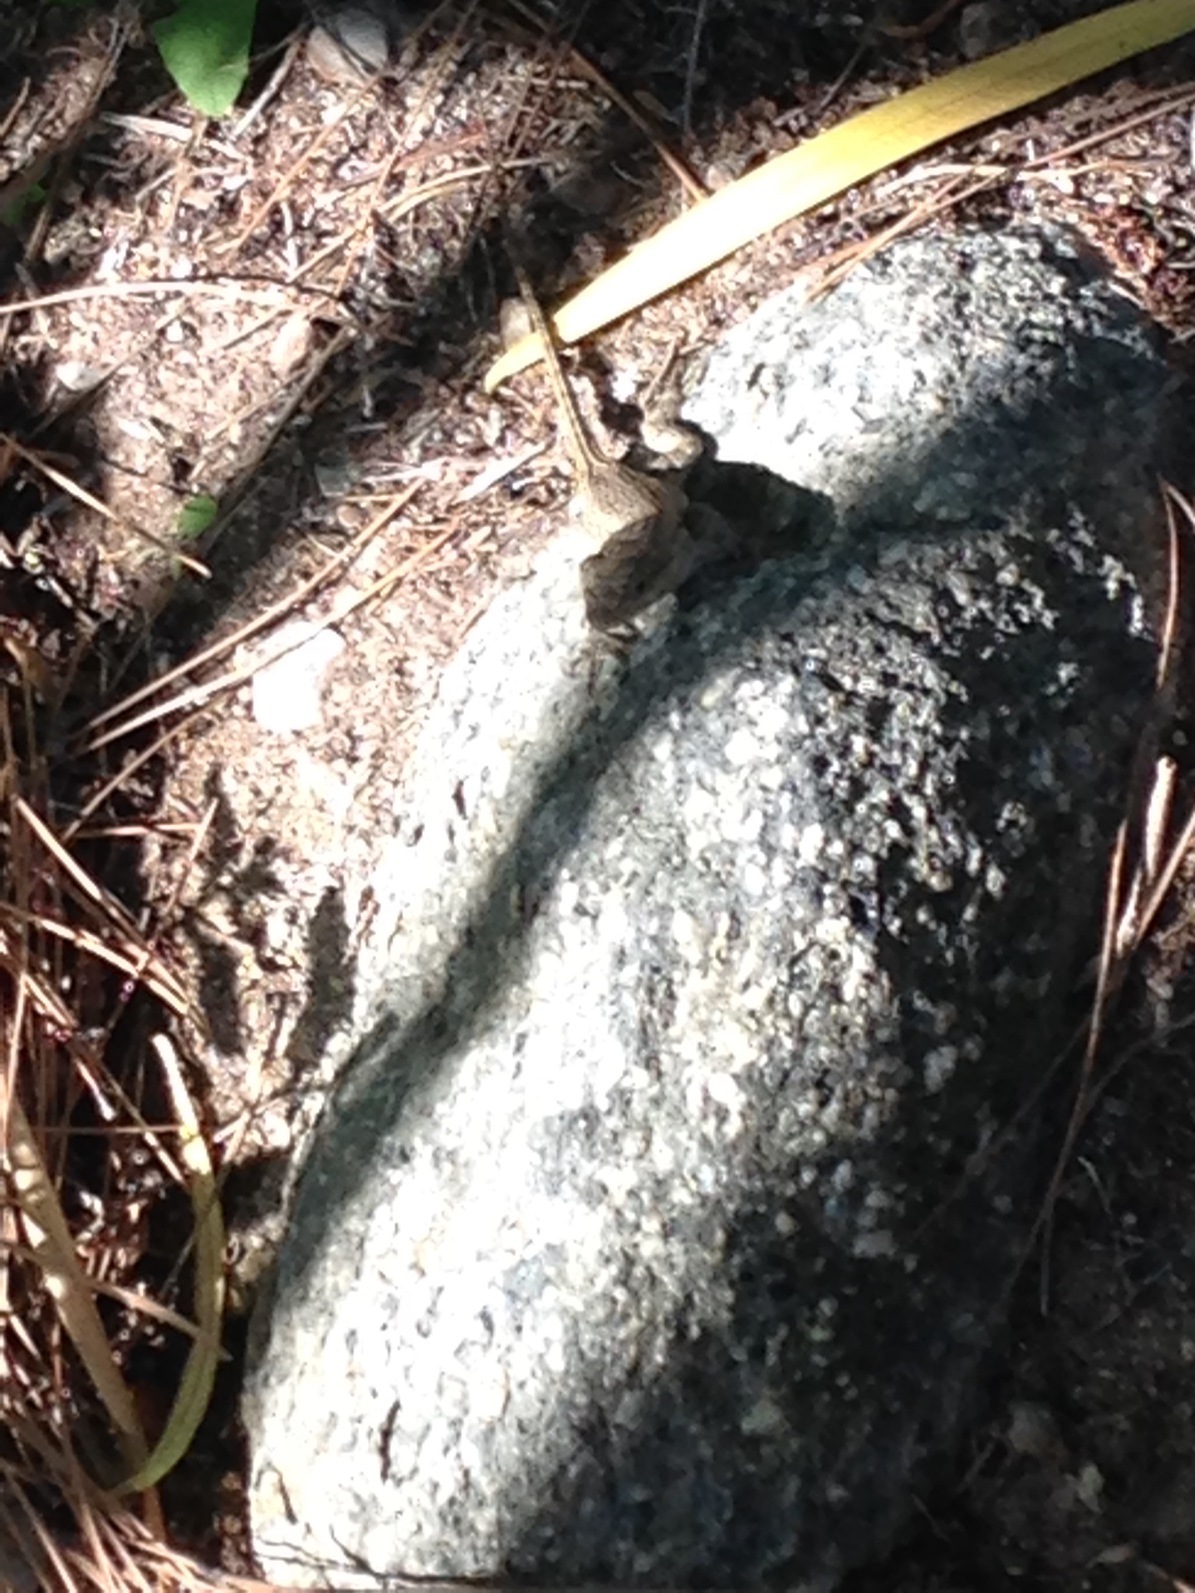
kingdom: Animalia
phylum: Chordata
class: Squamata
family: Phrynosomatidae
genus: Sceloporus
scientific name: Sceloporus occidentalis
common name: Western fence lizard
